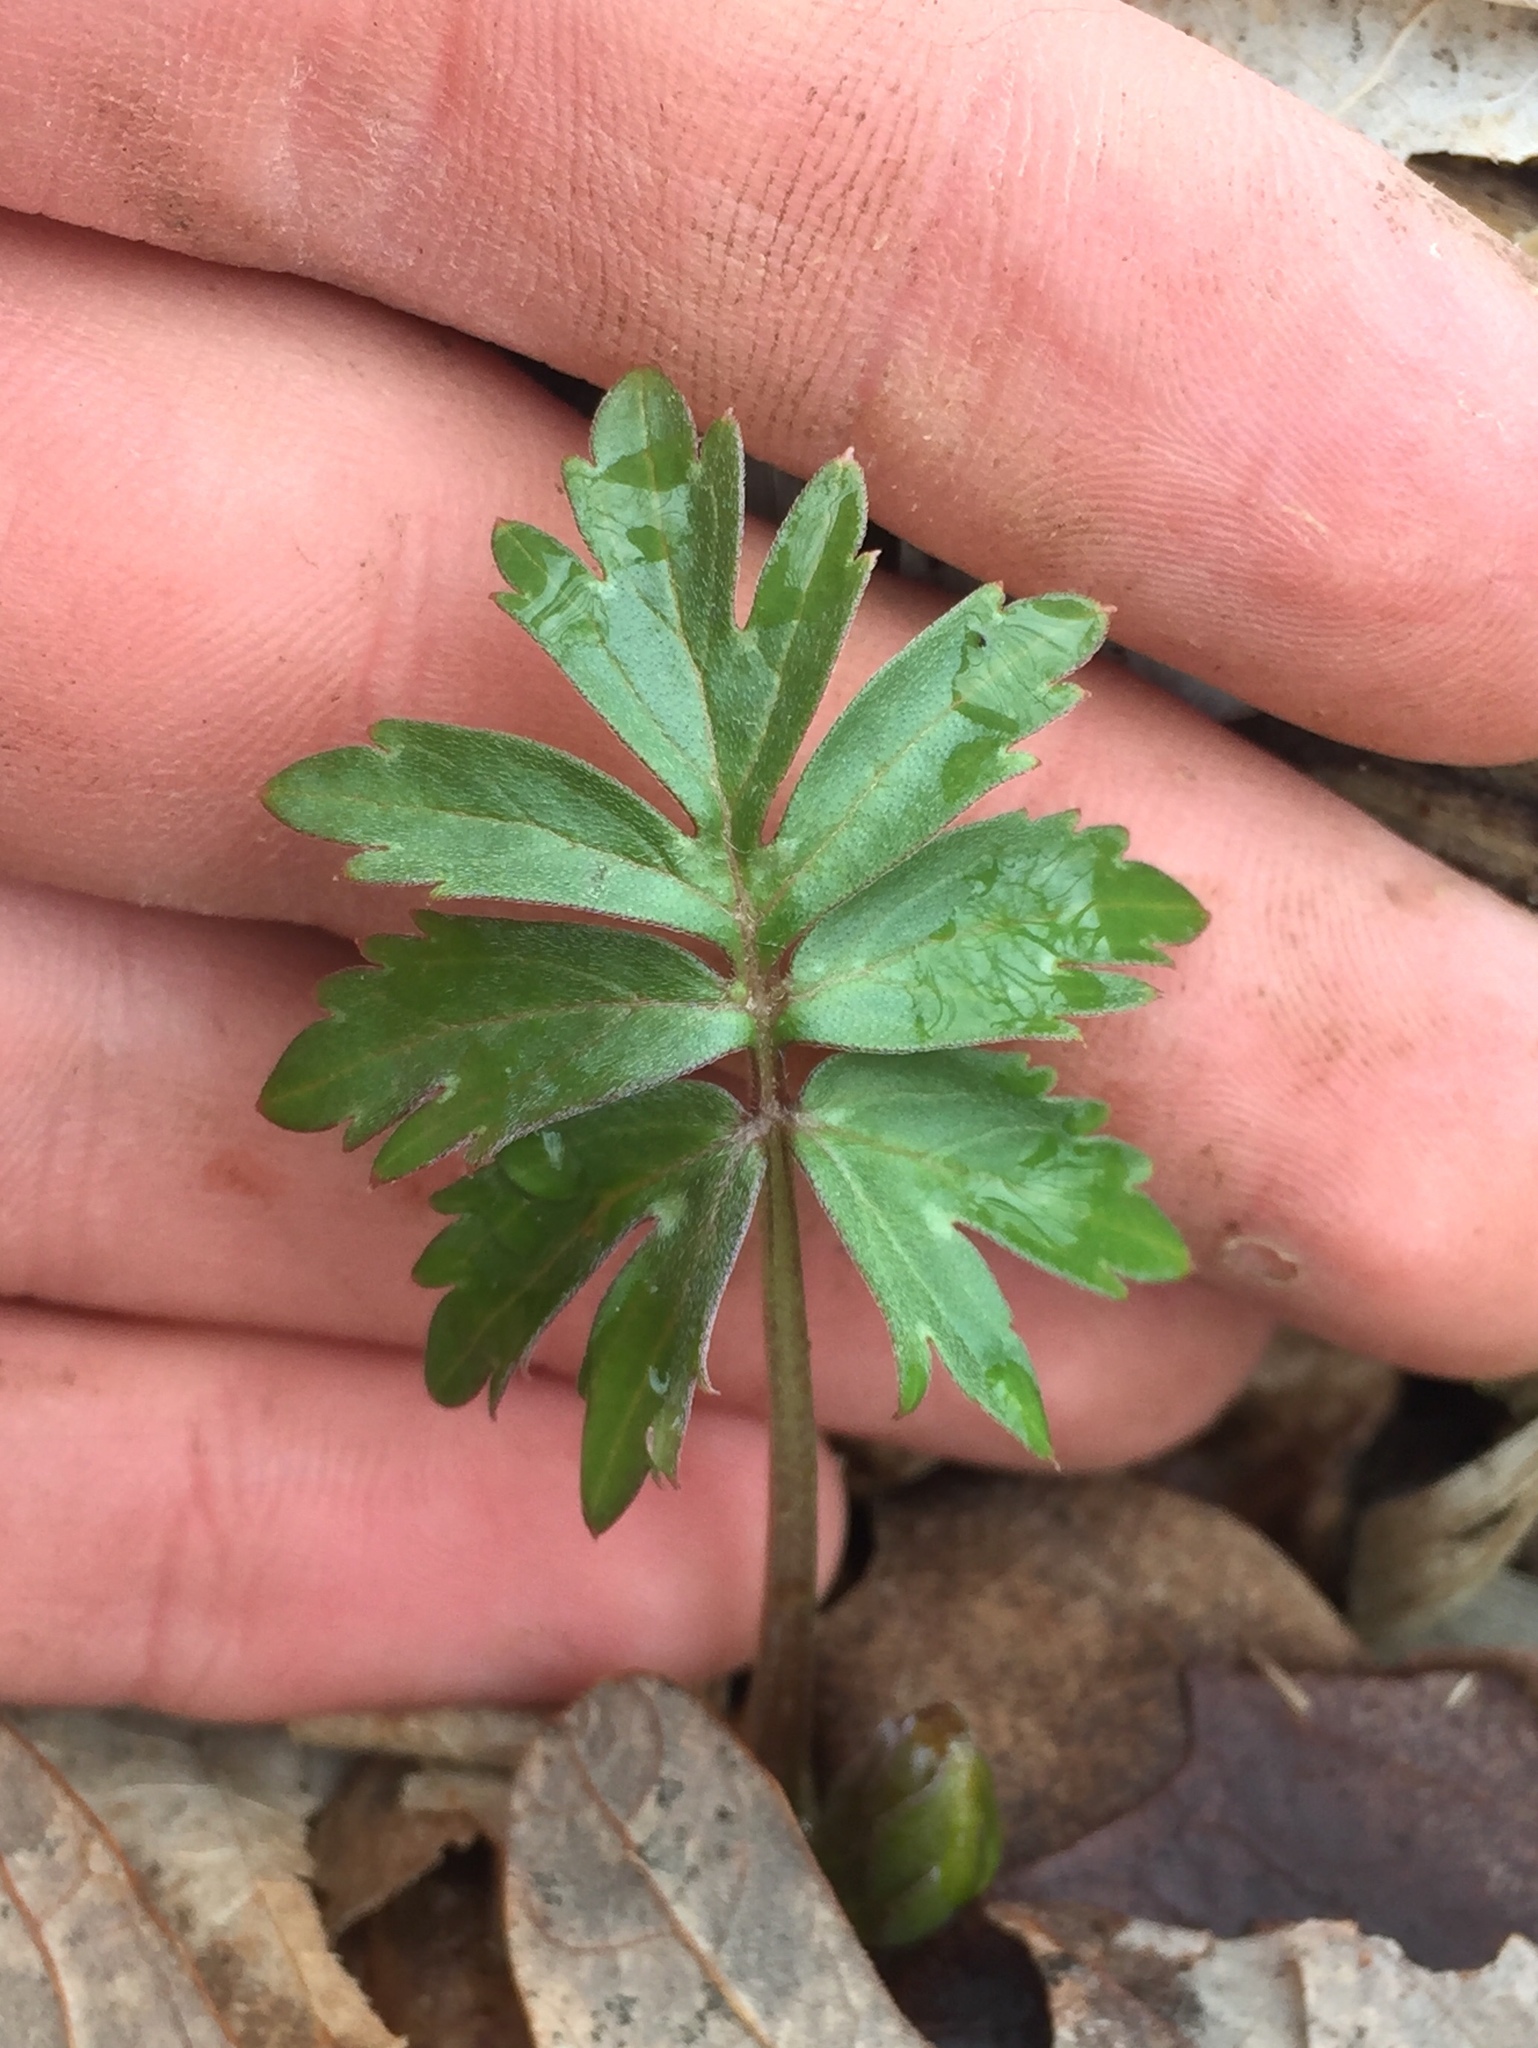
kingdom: Plantae
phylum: Tracheophyta
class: Magnoliopsida
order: Boraginales
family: Hydrophyllaceae
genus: Hydrophyllum
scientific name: Hydrophyllum virginianum
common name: Virginia waterleaf
